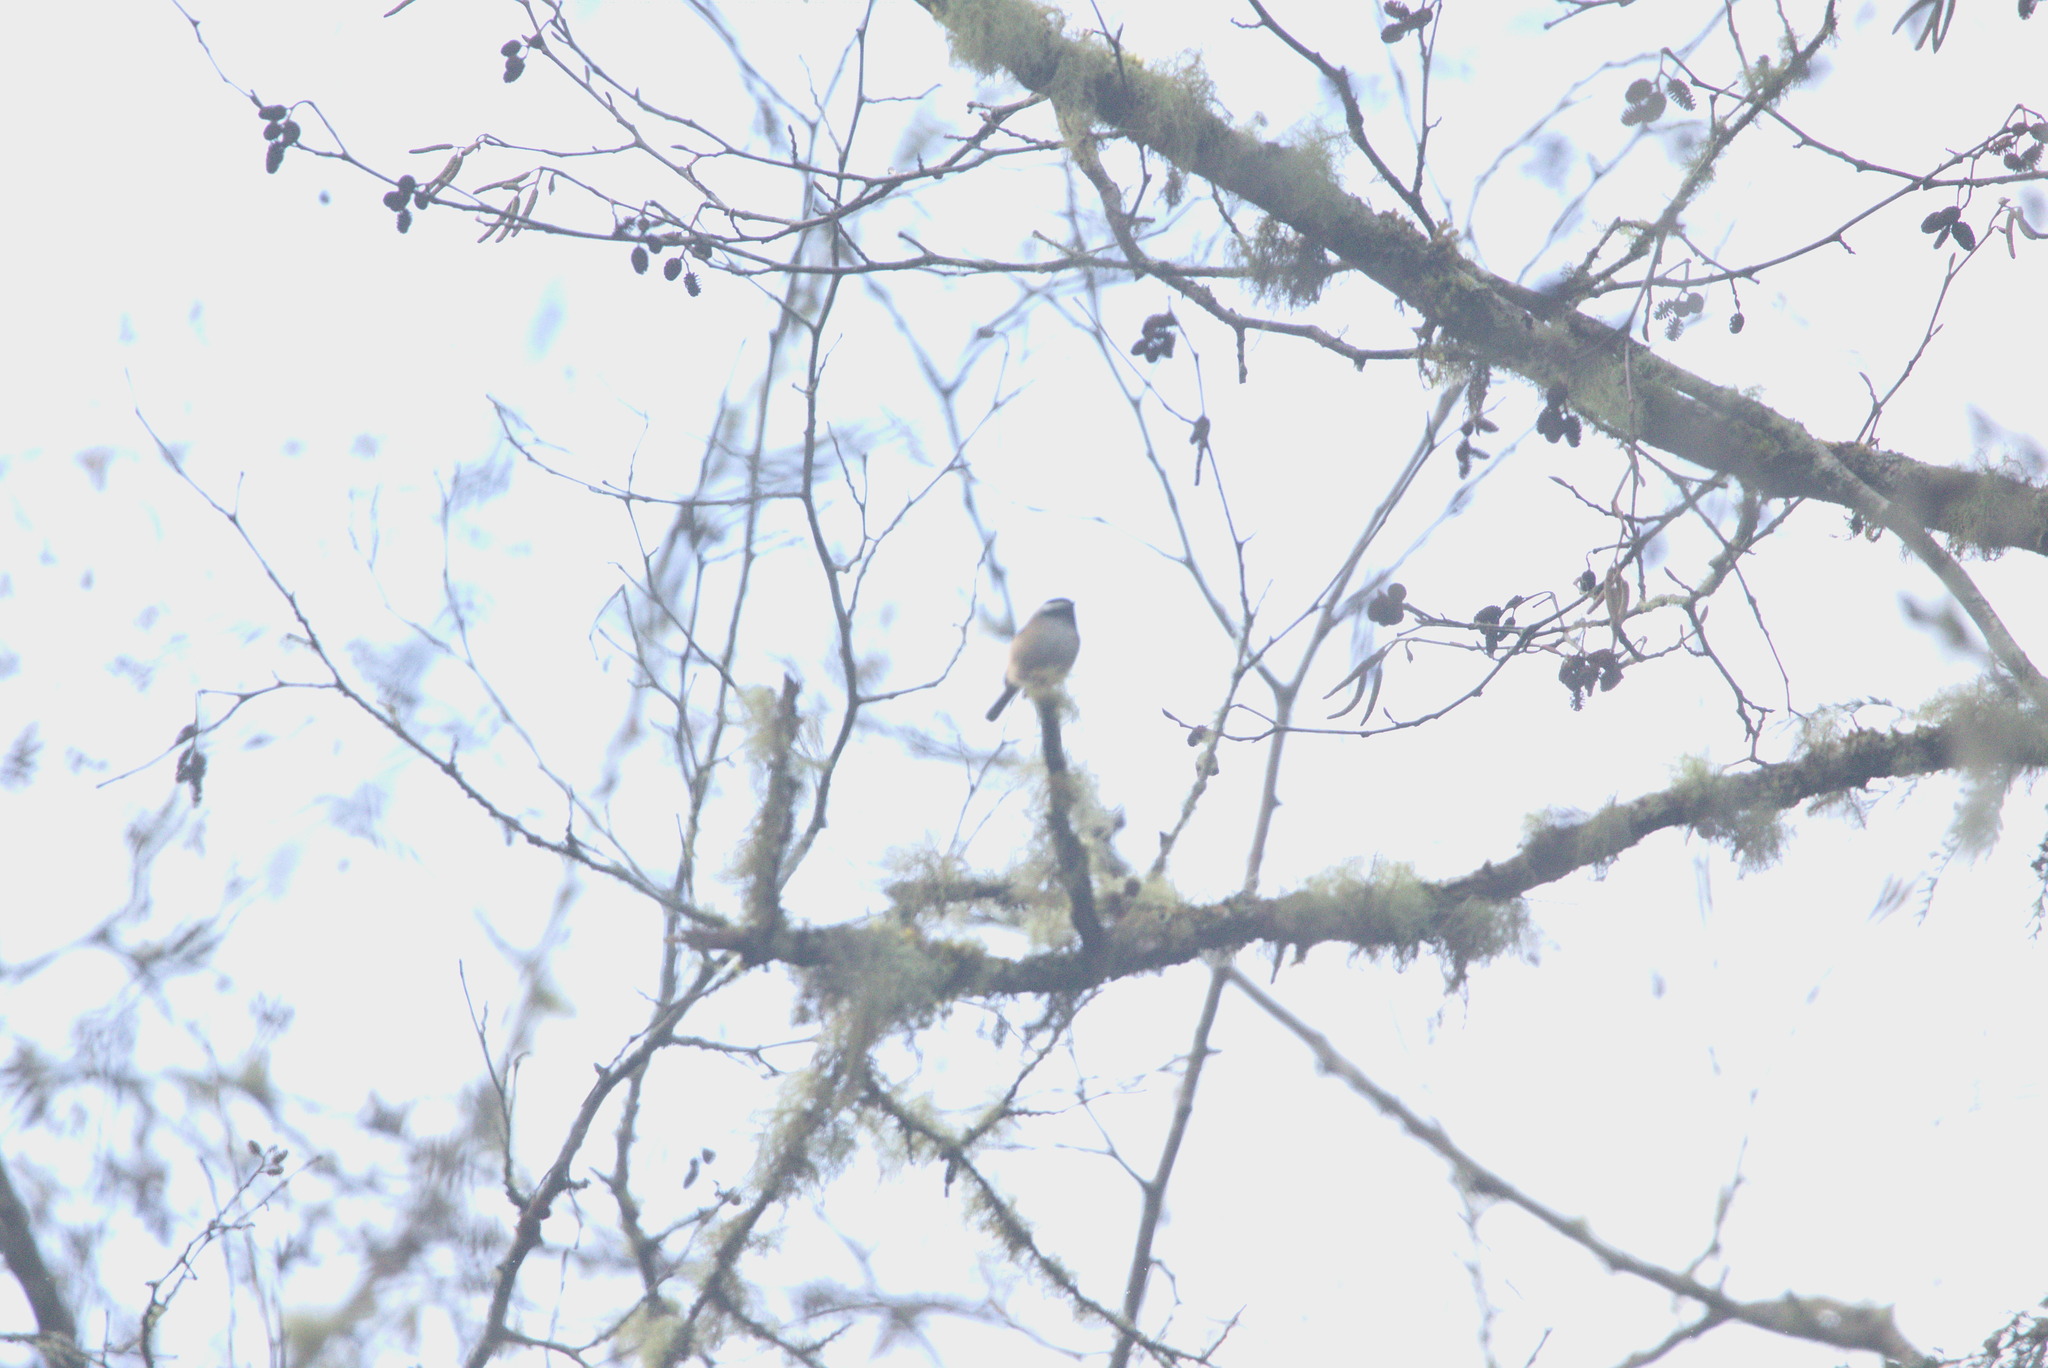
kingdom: Animalia
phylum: Chordata
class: Aves
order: Passeriformes
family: Paridae
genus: Poecile
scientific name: Poecile atricapillus
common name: Black-capped chickadee
